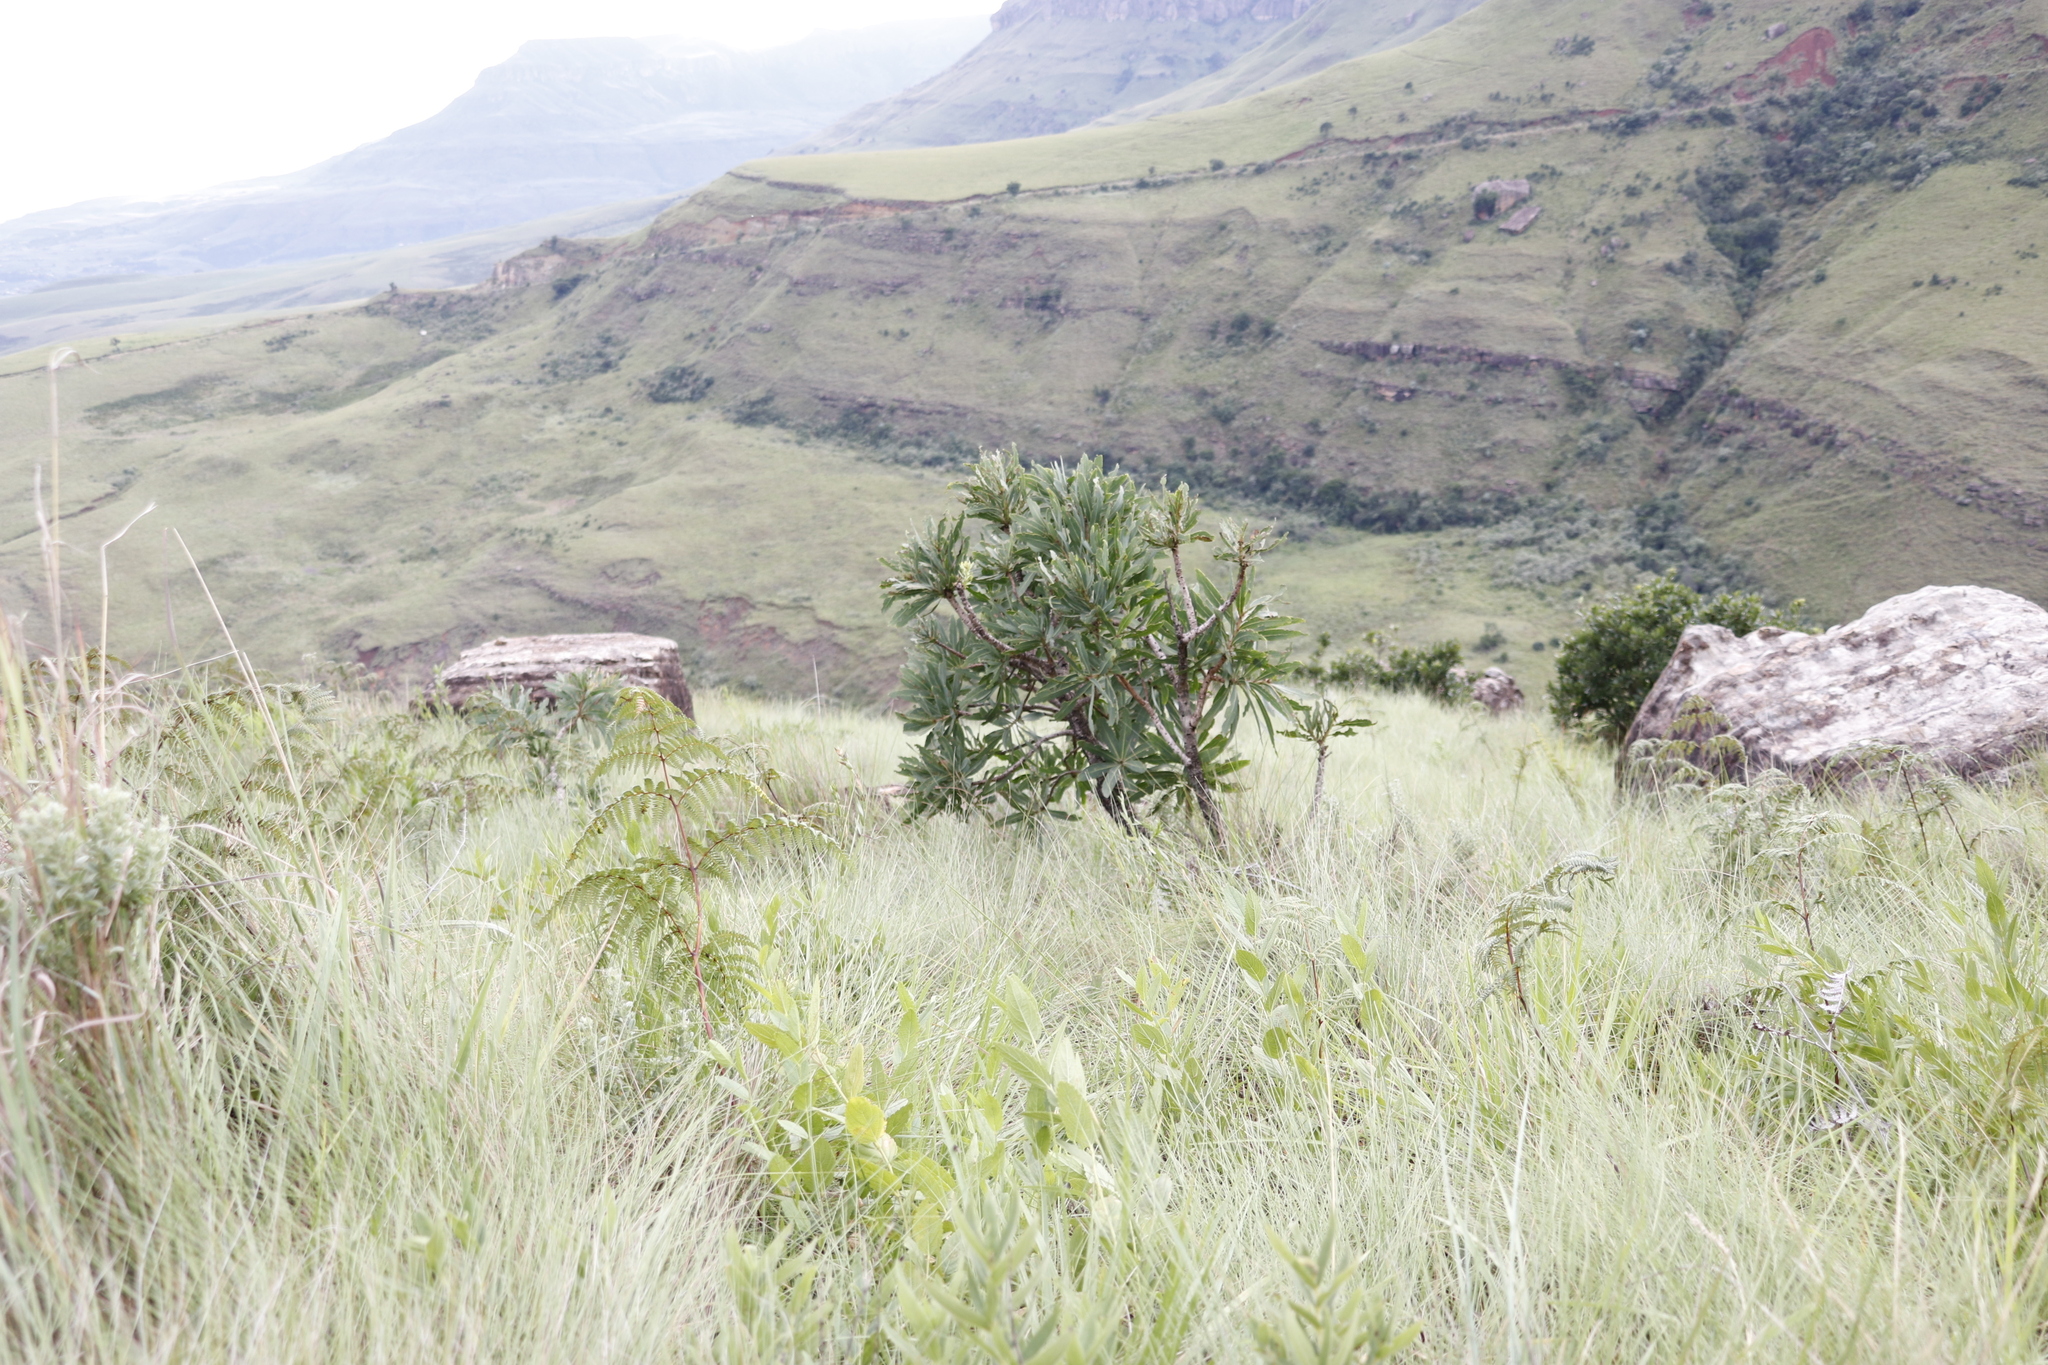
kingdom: Plantae
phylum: Tracheophyta
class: Magnoliopsida
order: Proteales
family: Proteaceae
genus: Protea
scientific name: Protea caffra
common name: Common sugarbush
